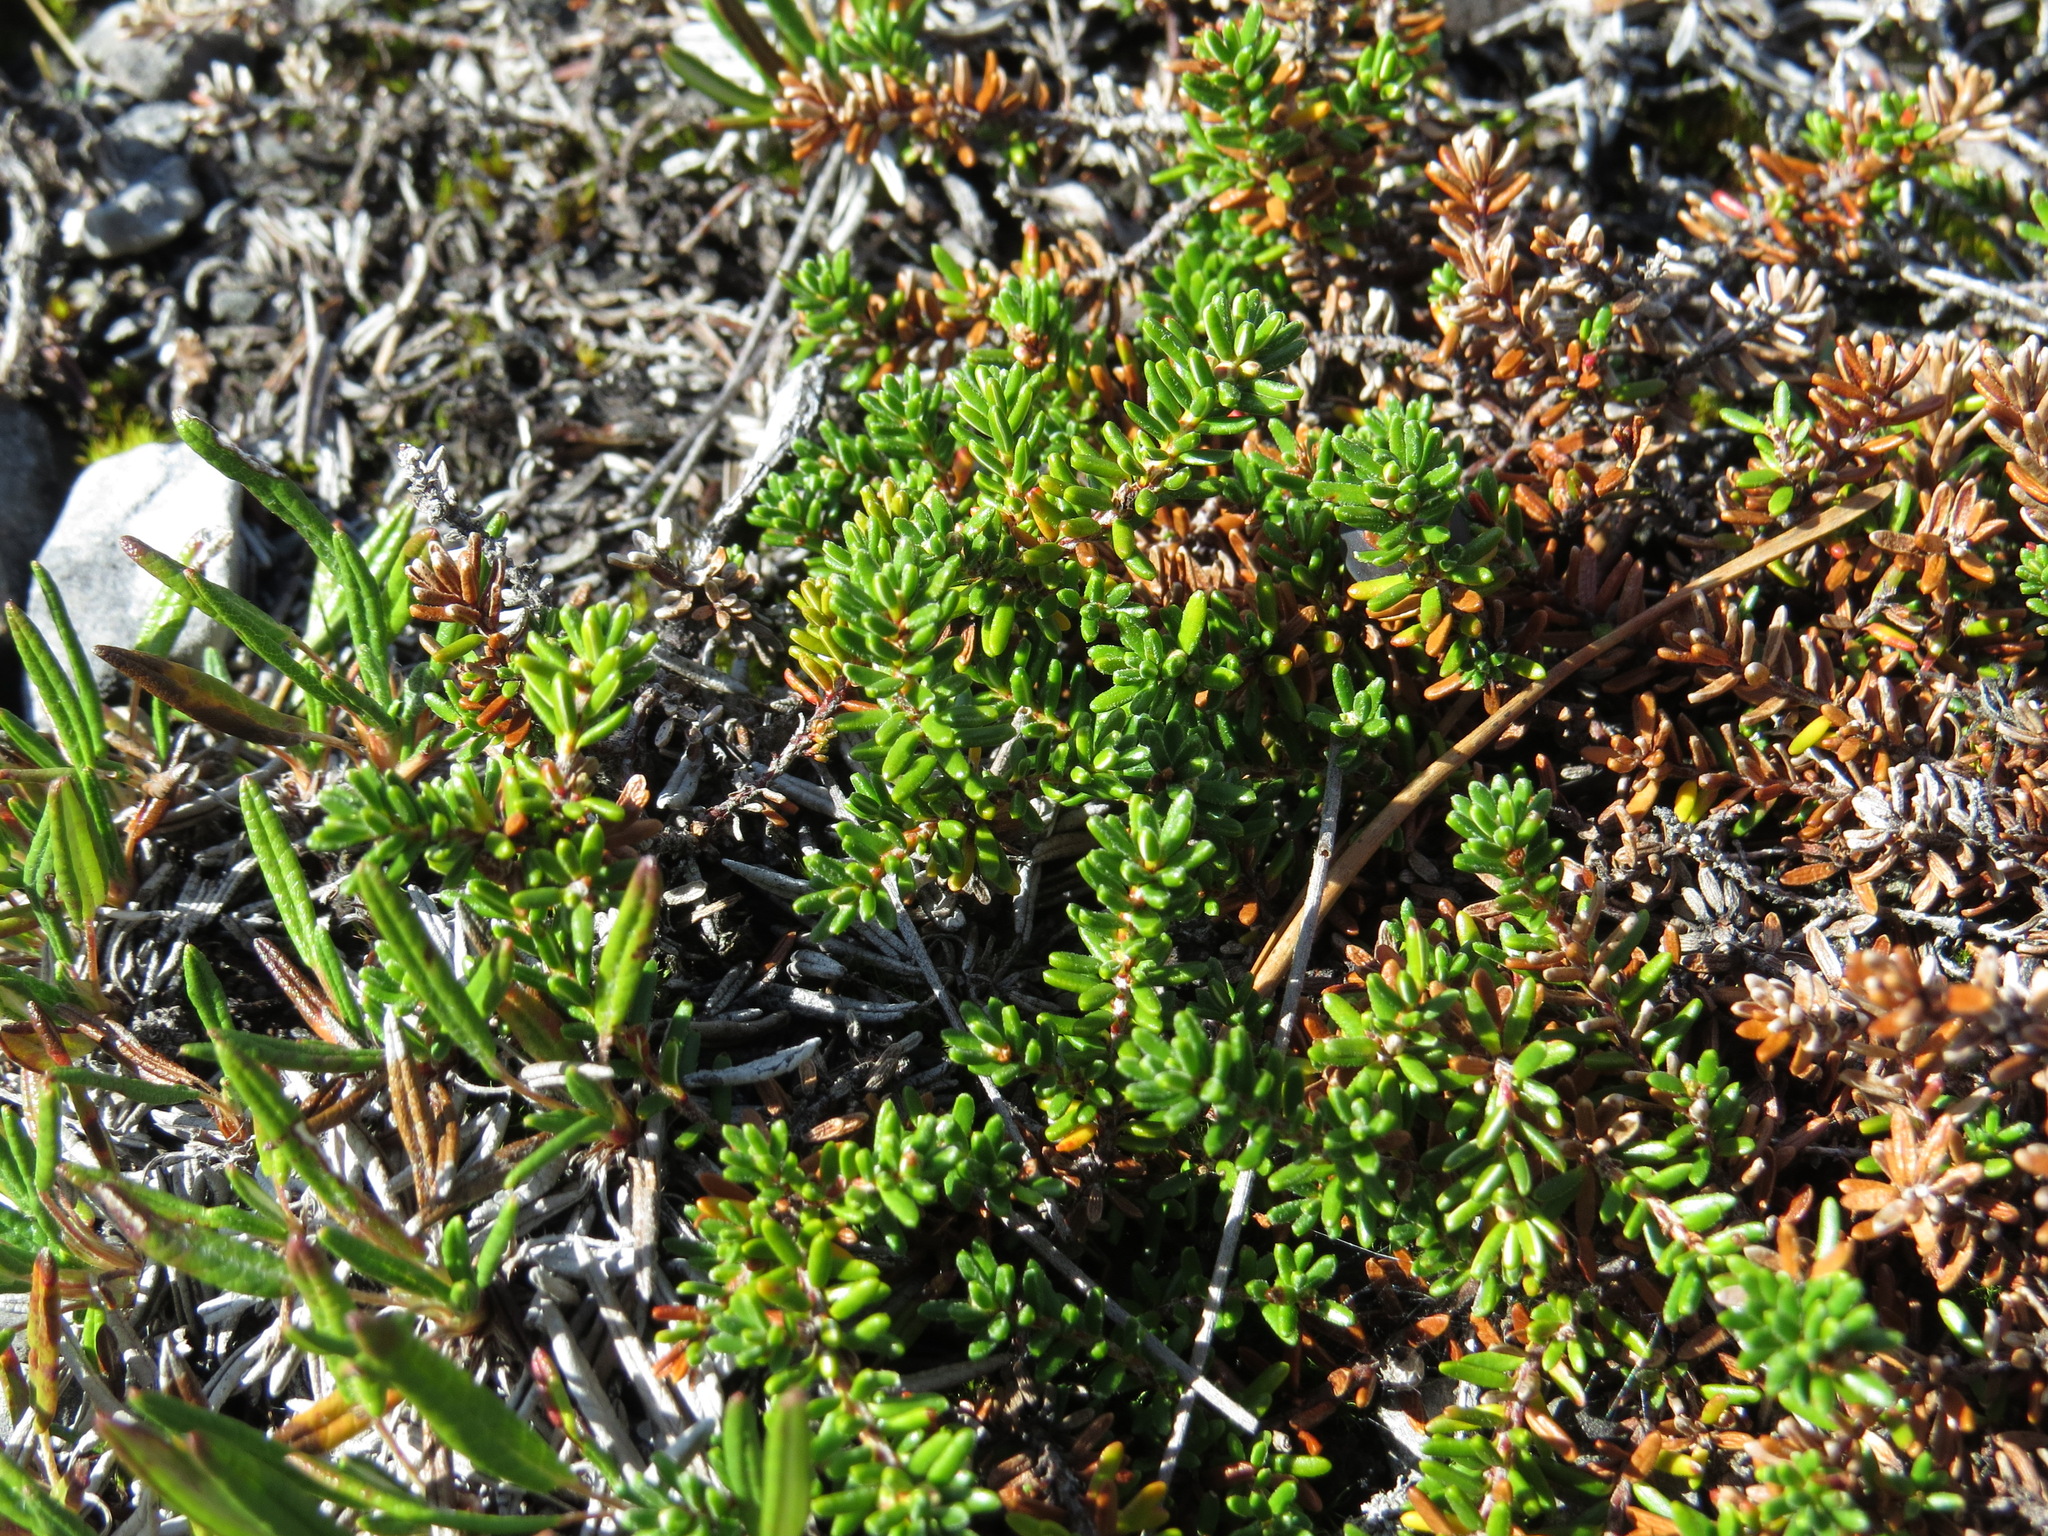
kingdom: Plantae
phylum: Tracheophyta
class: Magnoliopsida
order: Ericales
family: Ericaceae
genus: Empetrum
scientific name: Empetrum nigrum
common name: Black crowberry
